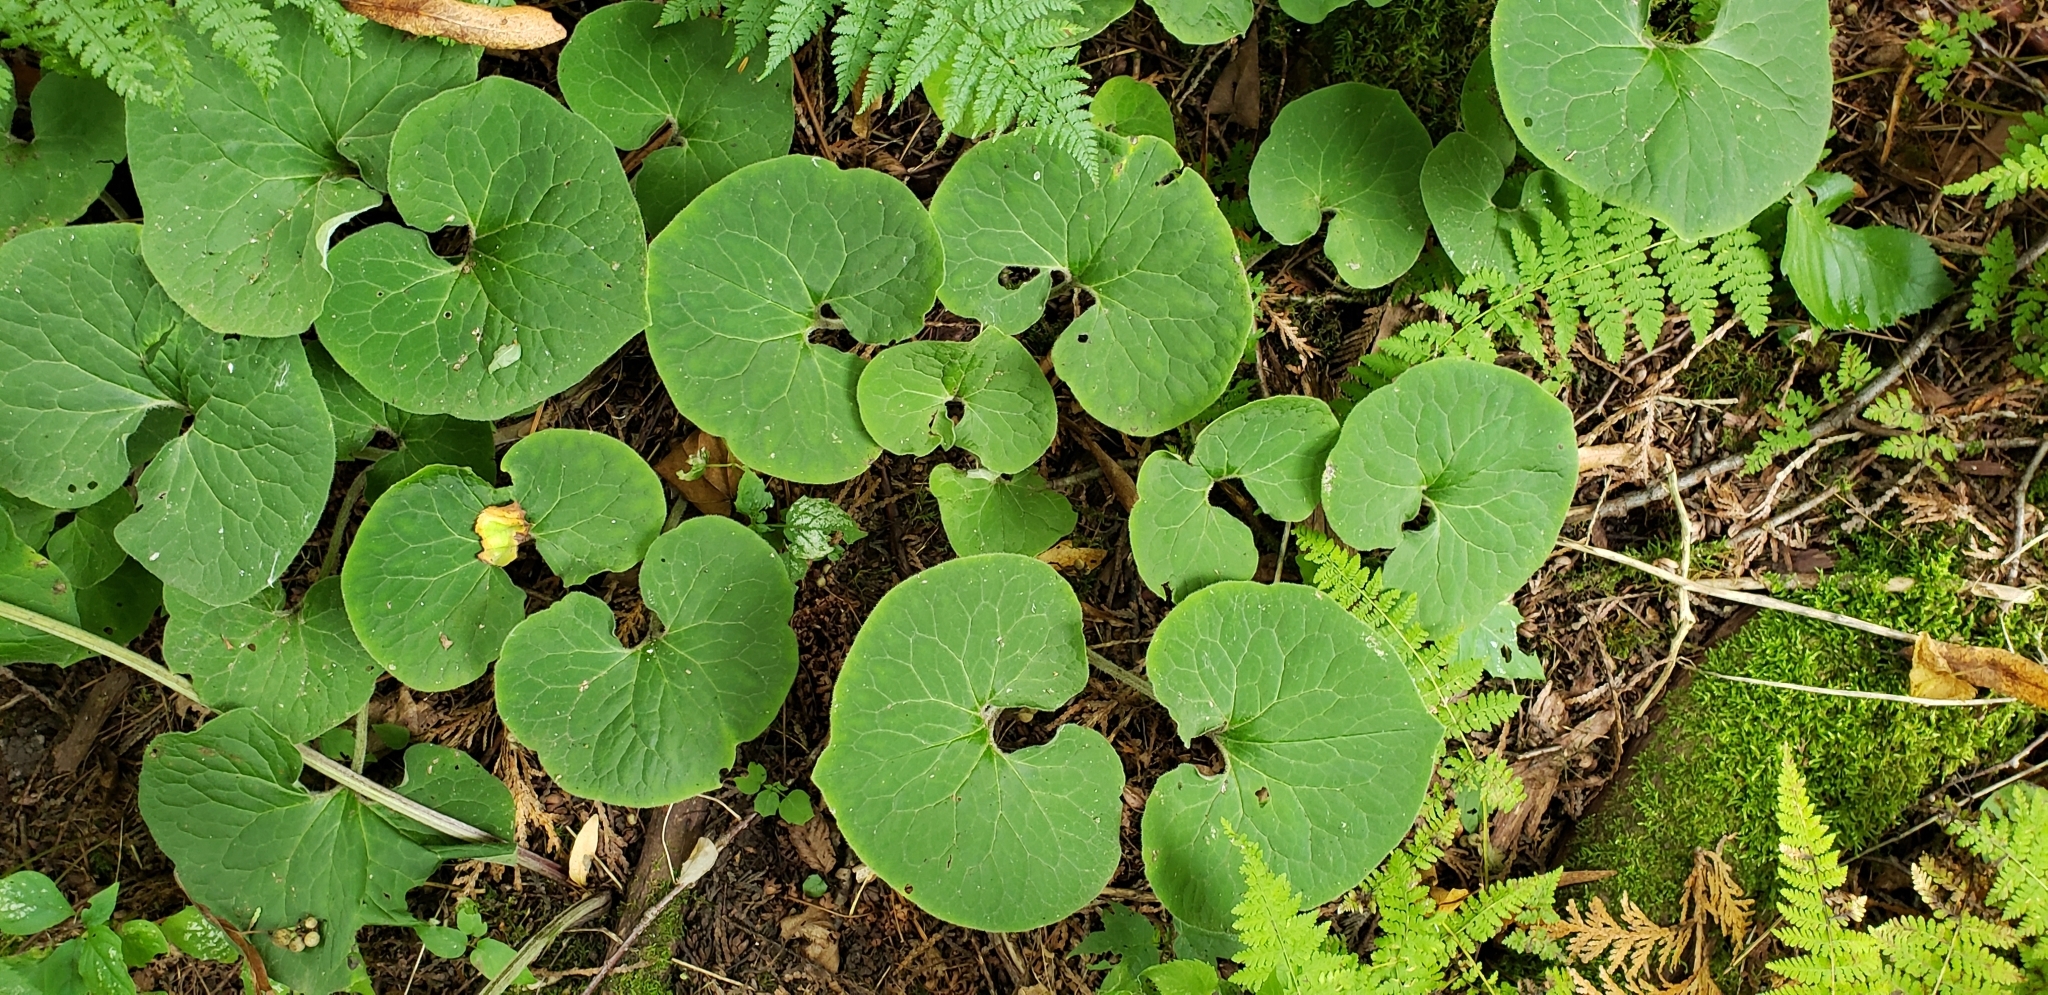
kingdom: Plantae
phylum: Tracheophyta
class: Magnoliopsida
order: Piperales
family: Aristolochiaceae
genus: Asarum
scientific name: Asarum canadense
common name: Wild ginger
